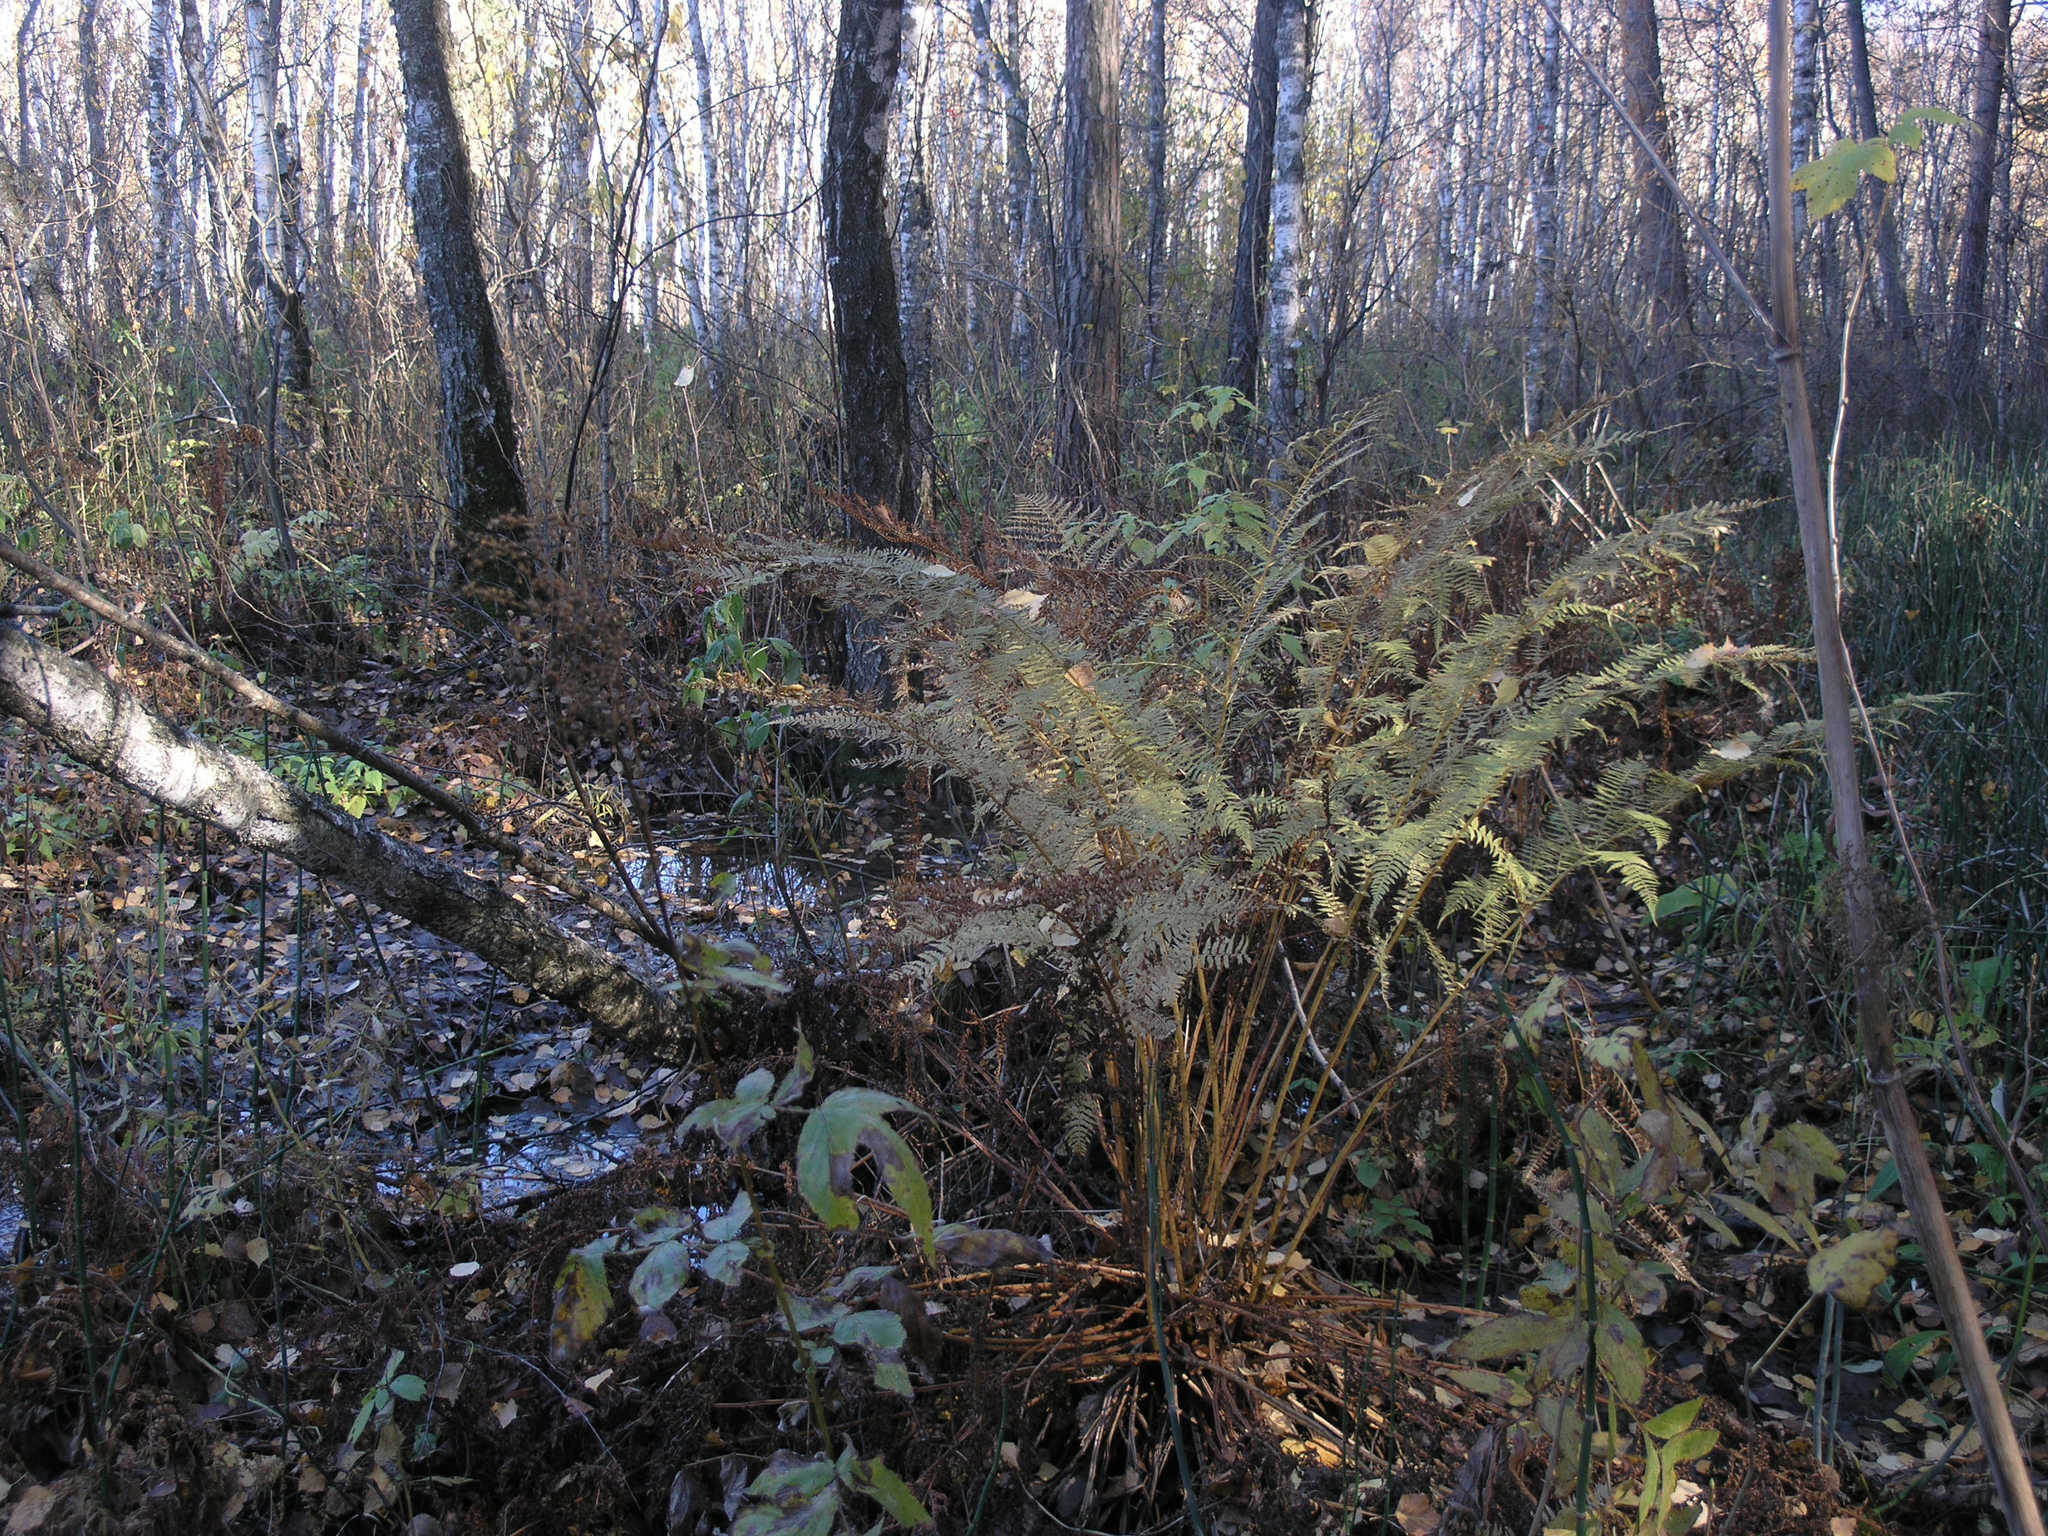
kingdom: Plantae
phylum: Tracheophyta
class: Polypodiopsida
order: Polypodiales
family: Athyriaceae
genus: Athyrium
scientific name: Athyrium filix-femina
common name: Lady fern
